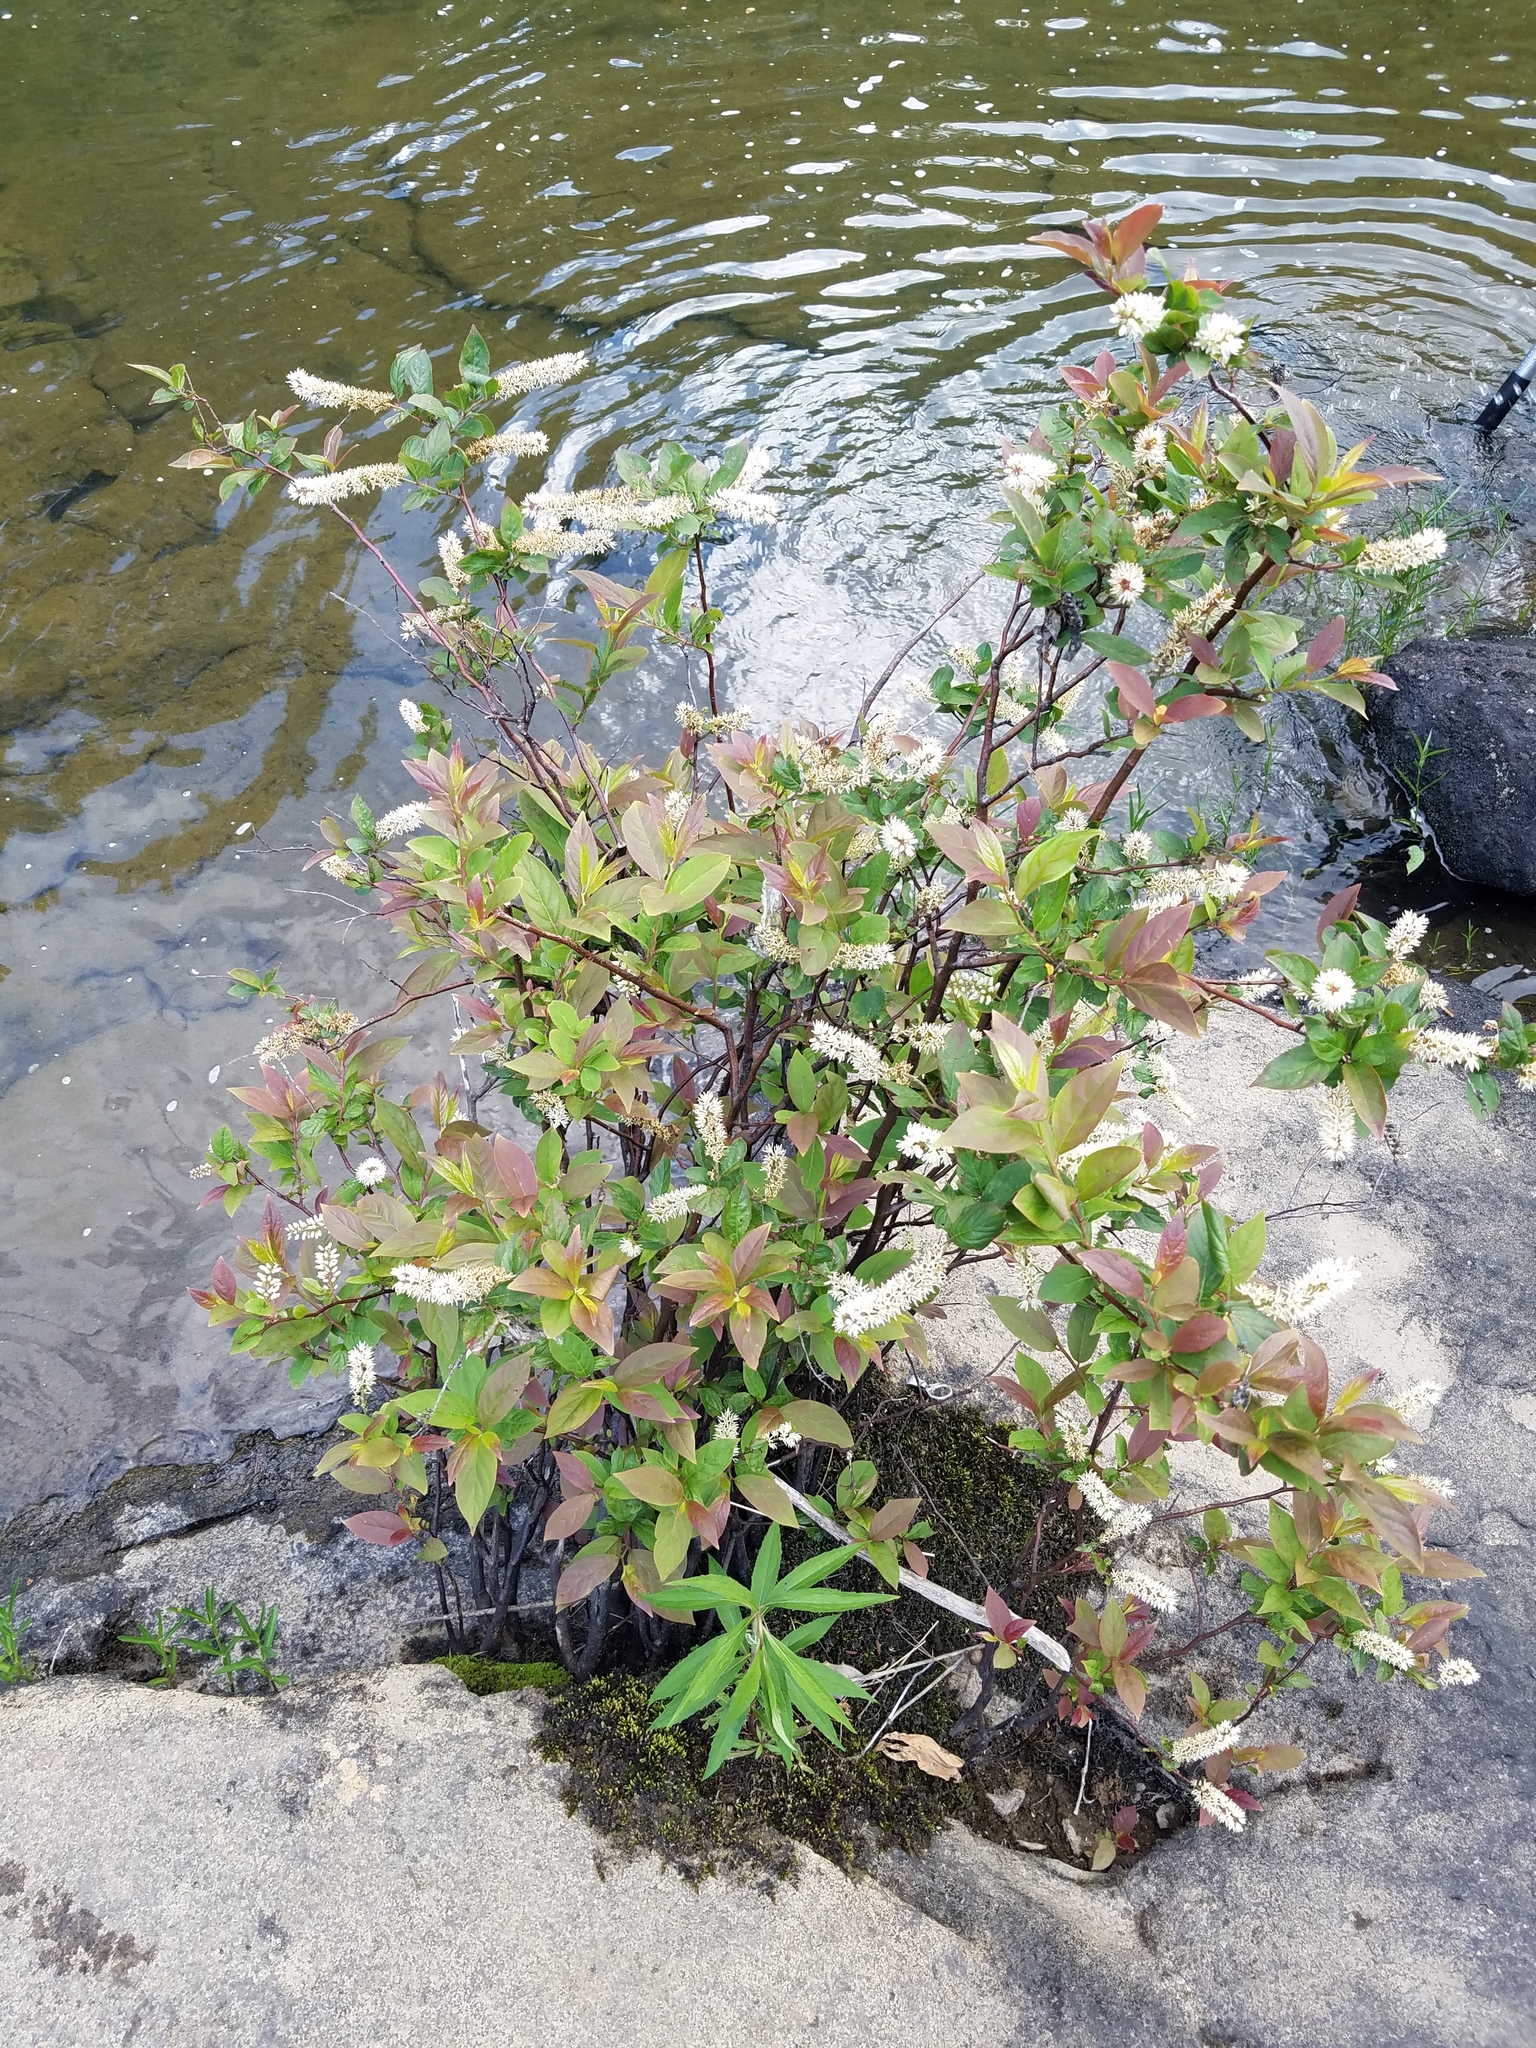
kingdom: Plantae
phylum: Tracheophyta
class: Magnoliopsida
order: Saxifragales
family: Iteaceae
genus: Itea
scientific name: Itea virginica
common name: Sweetspire
